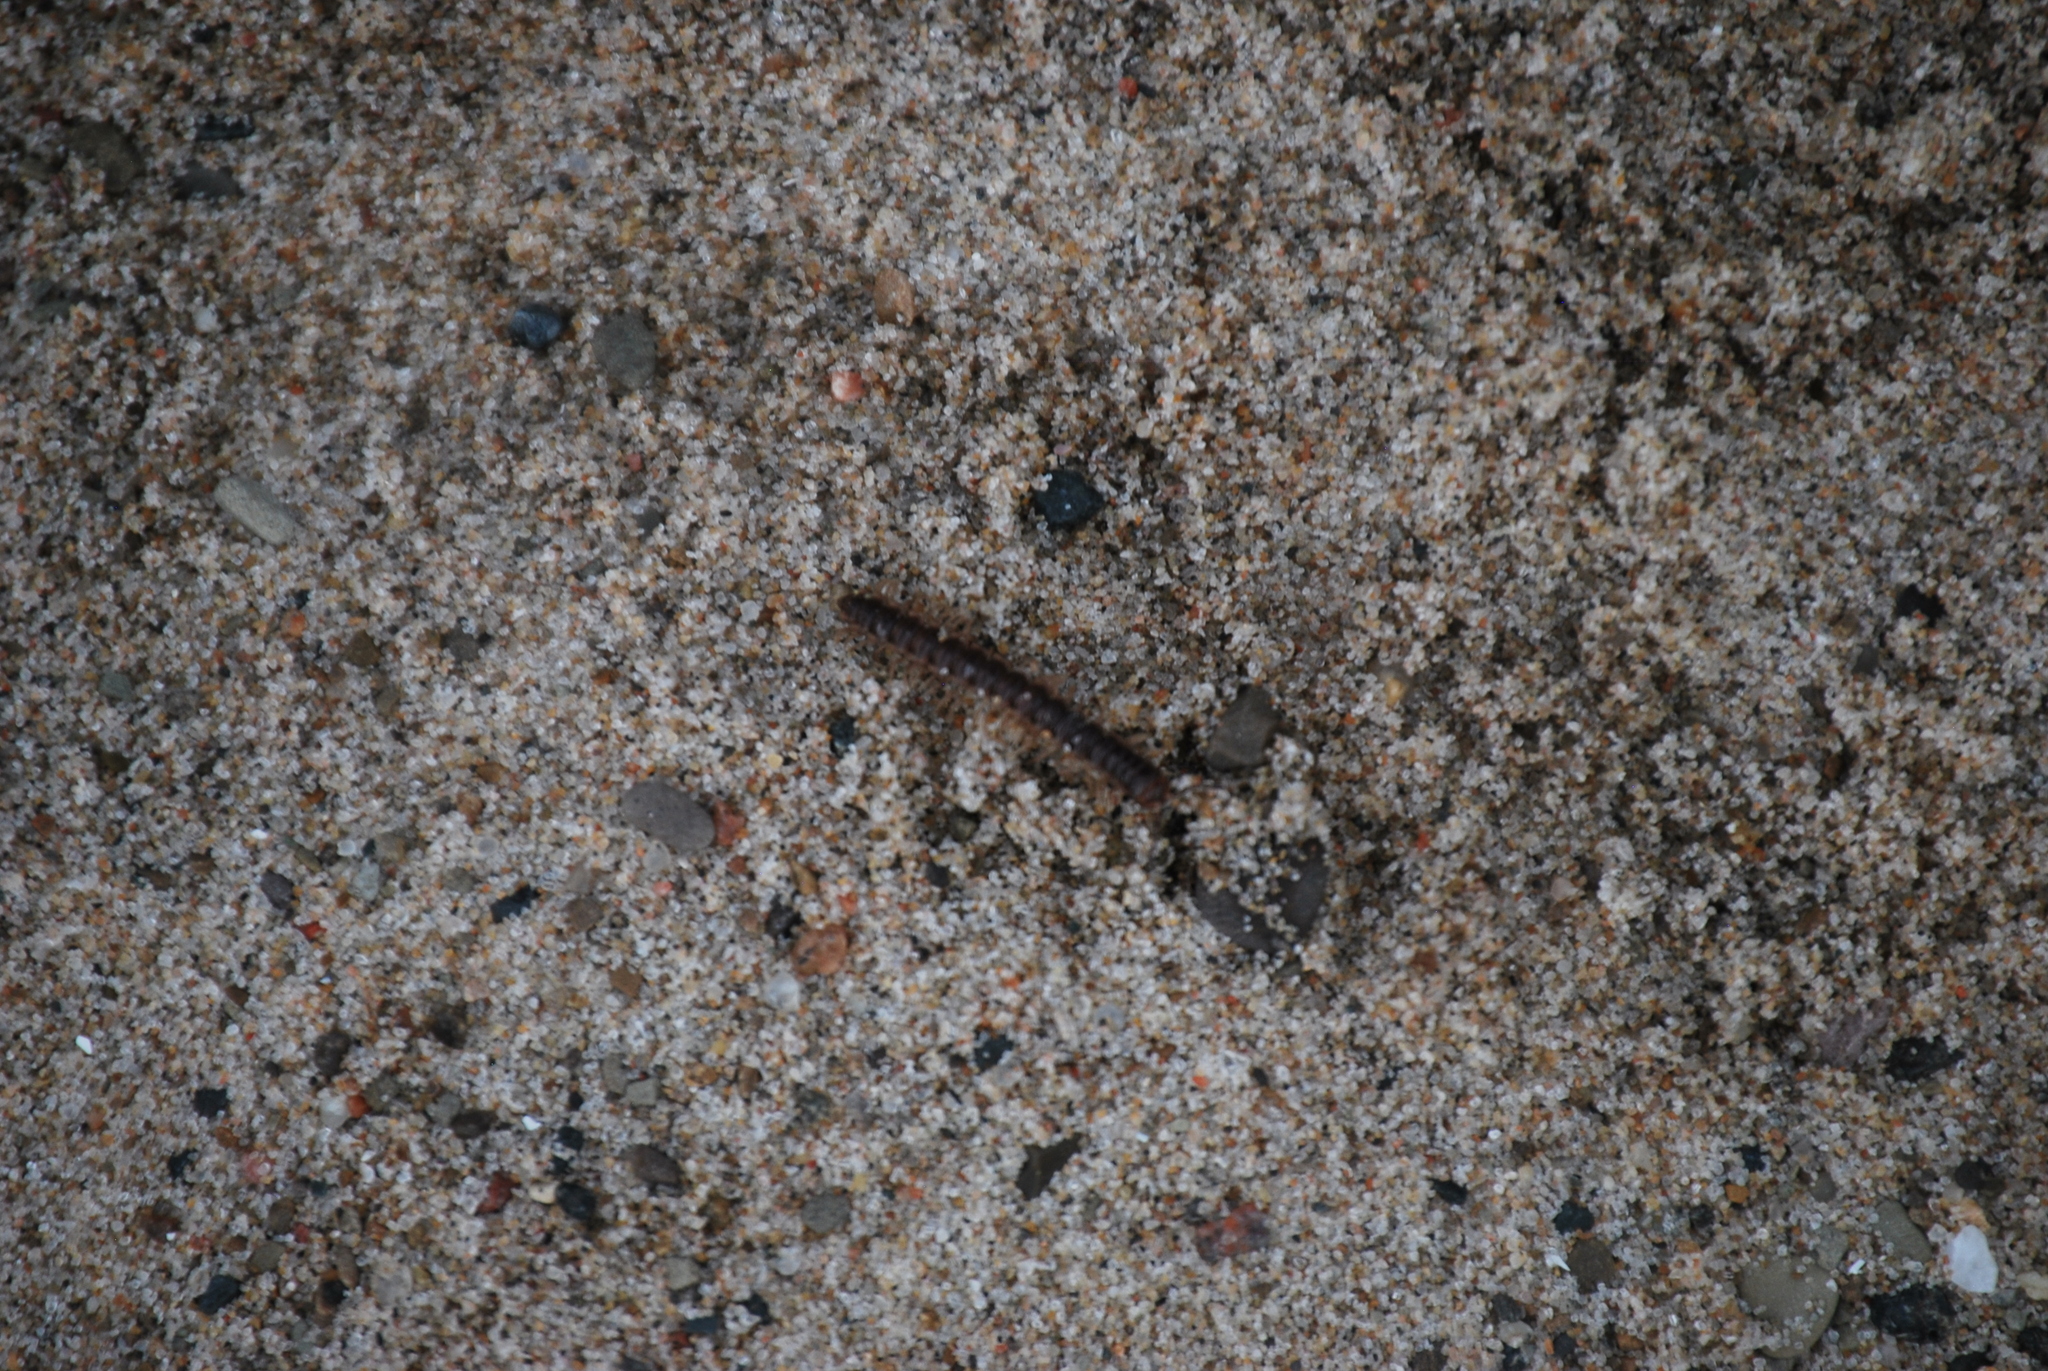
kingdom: Animalia
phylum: Arthropoda
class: Diplopoda
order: Polydesmida
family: Paradoxosomatidae
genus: Oxidus
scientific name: Oxidus gracilis
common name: Greenhouse millipede
